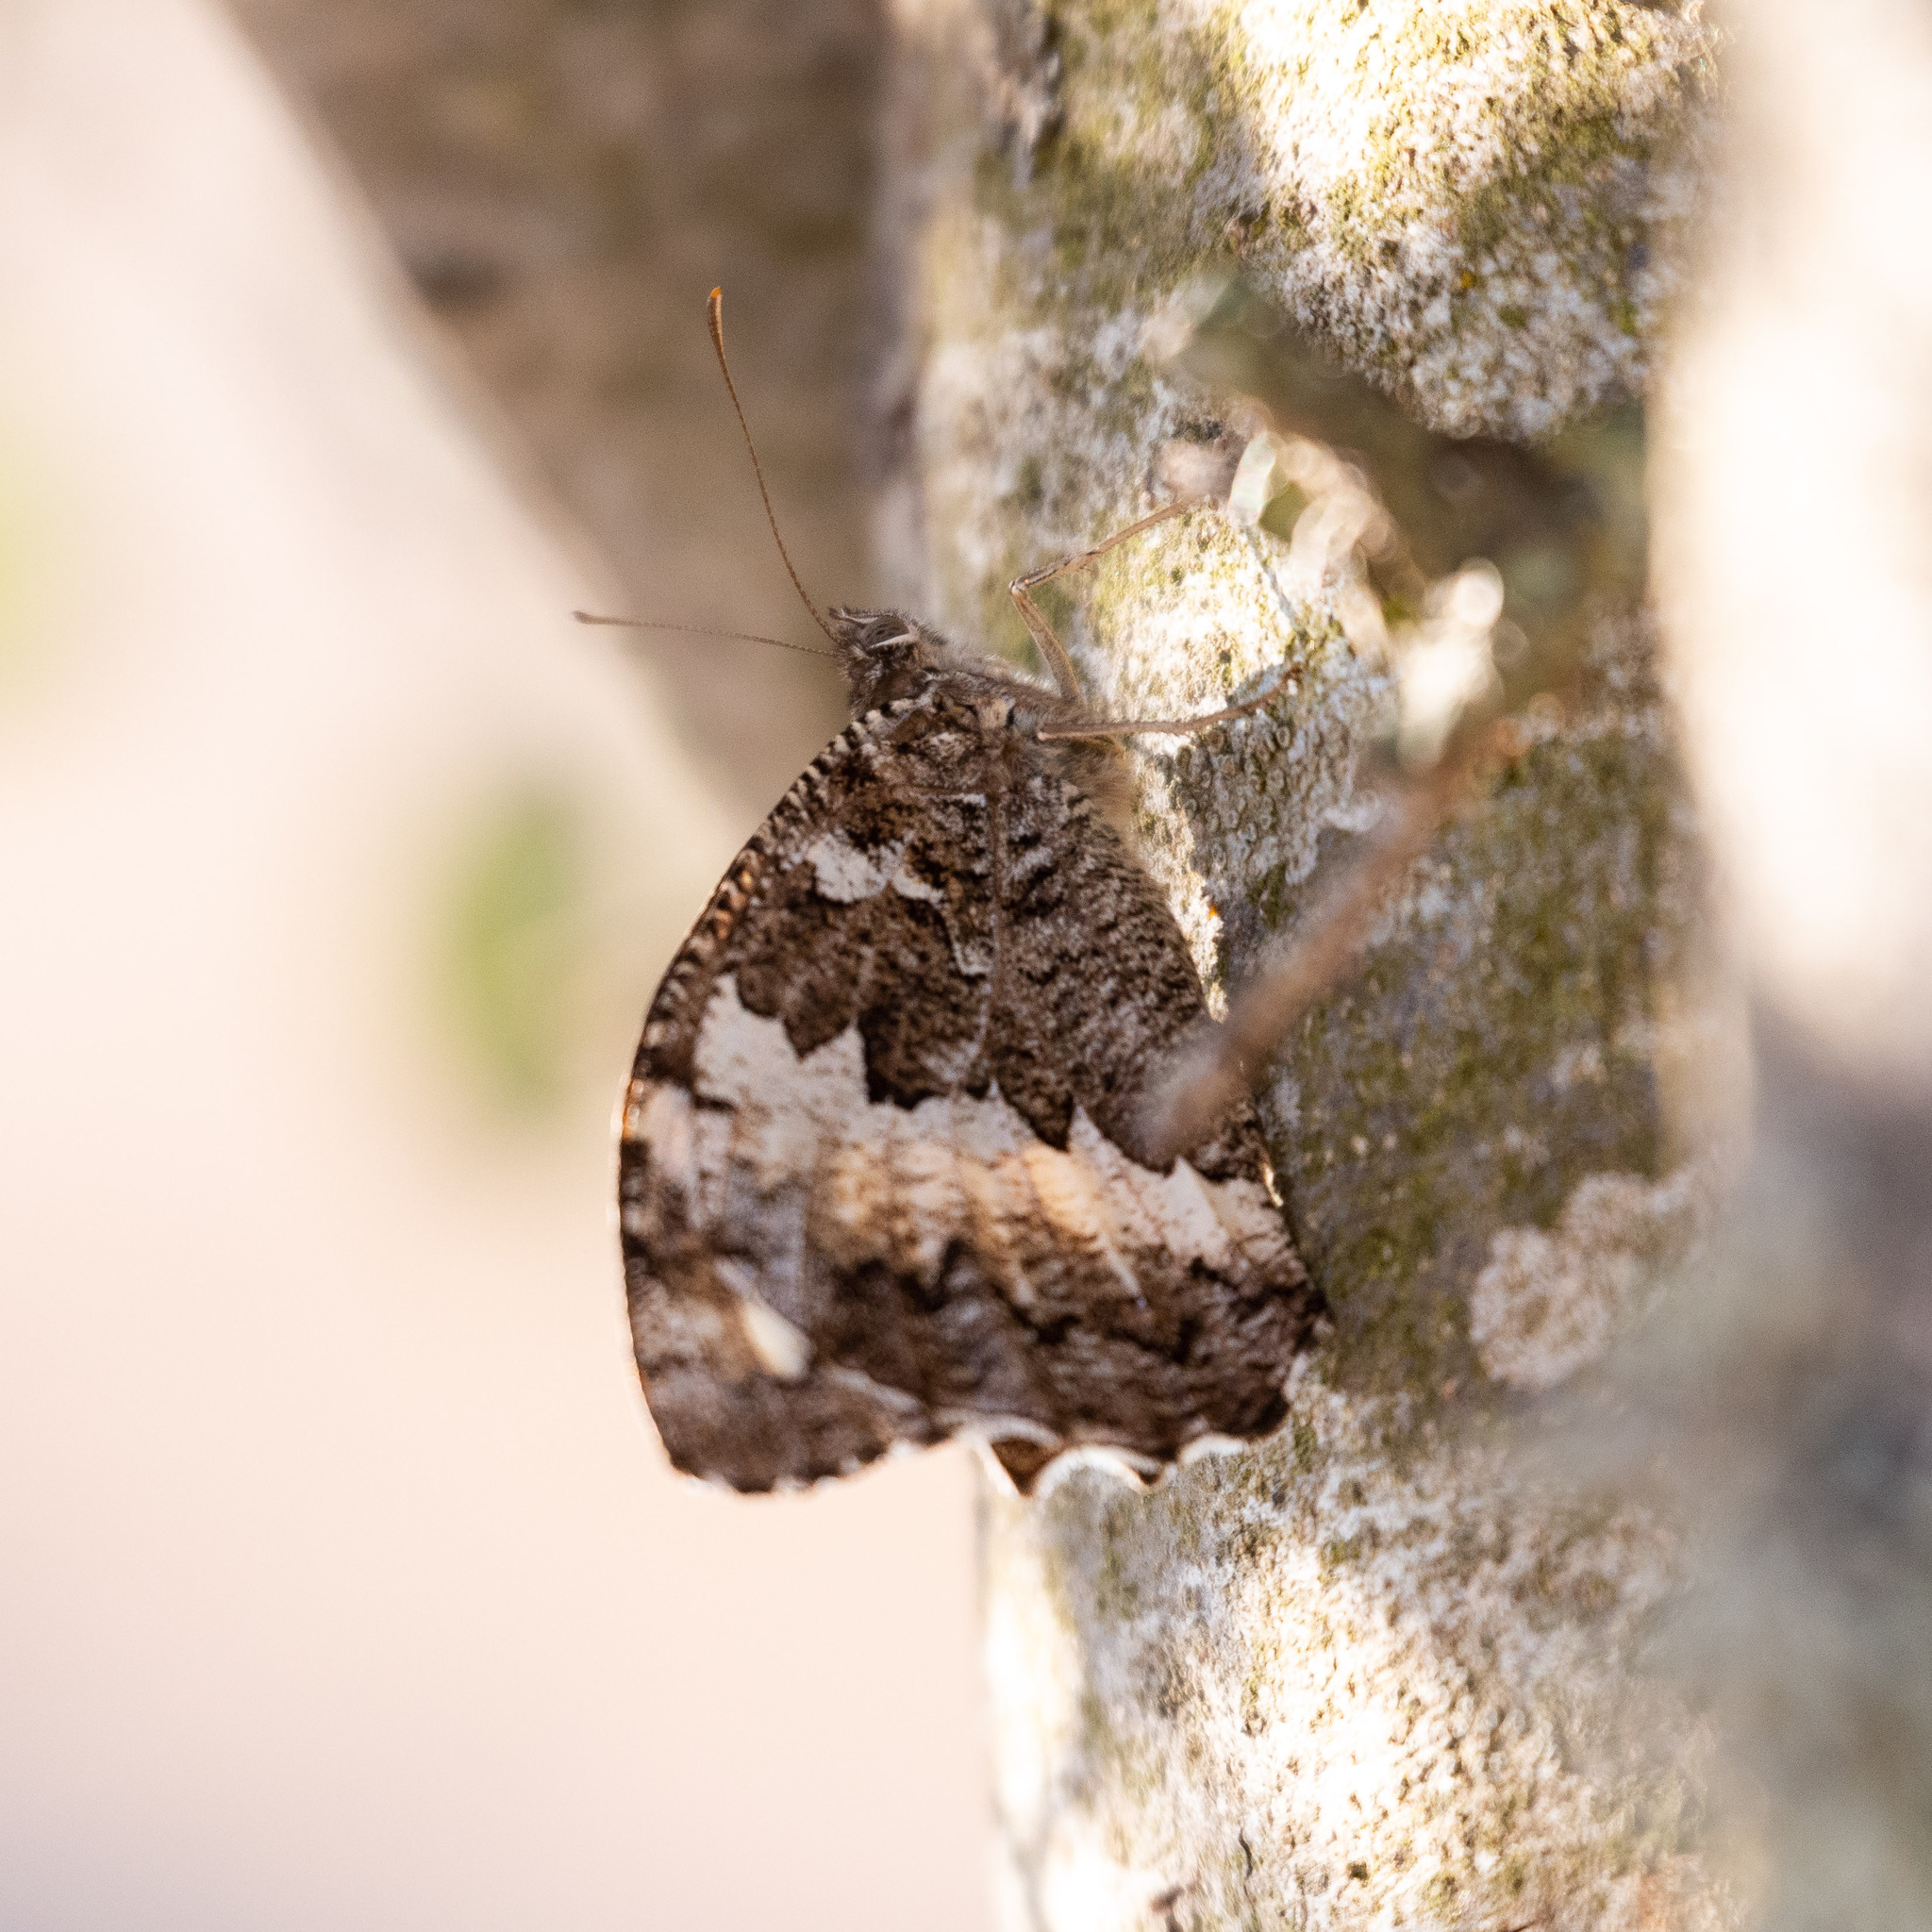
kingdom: Animalia
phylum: Arthropoda
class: Insecta
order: Lepidoptera
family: Lycaenidae
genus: Loweia
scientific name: Loweia tityrus
